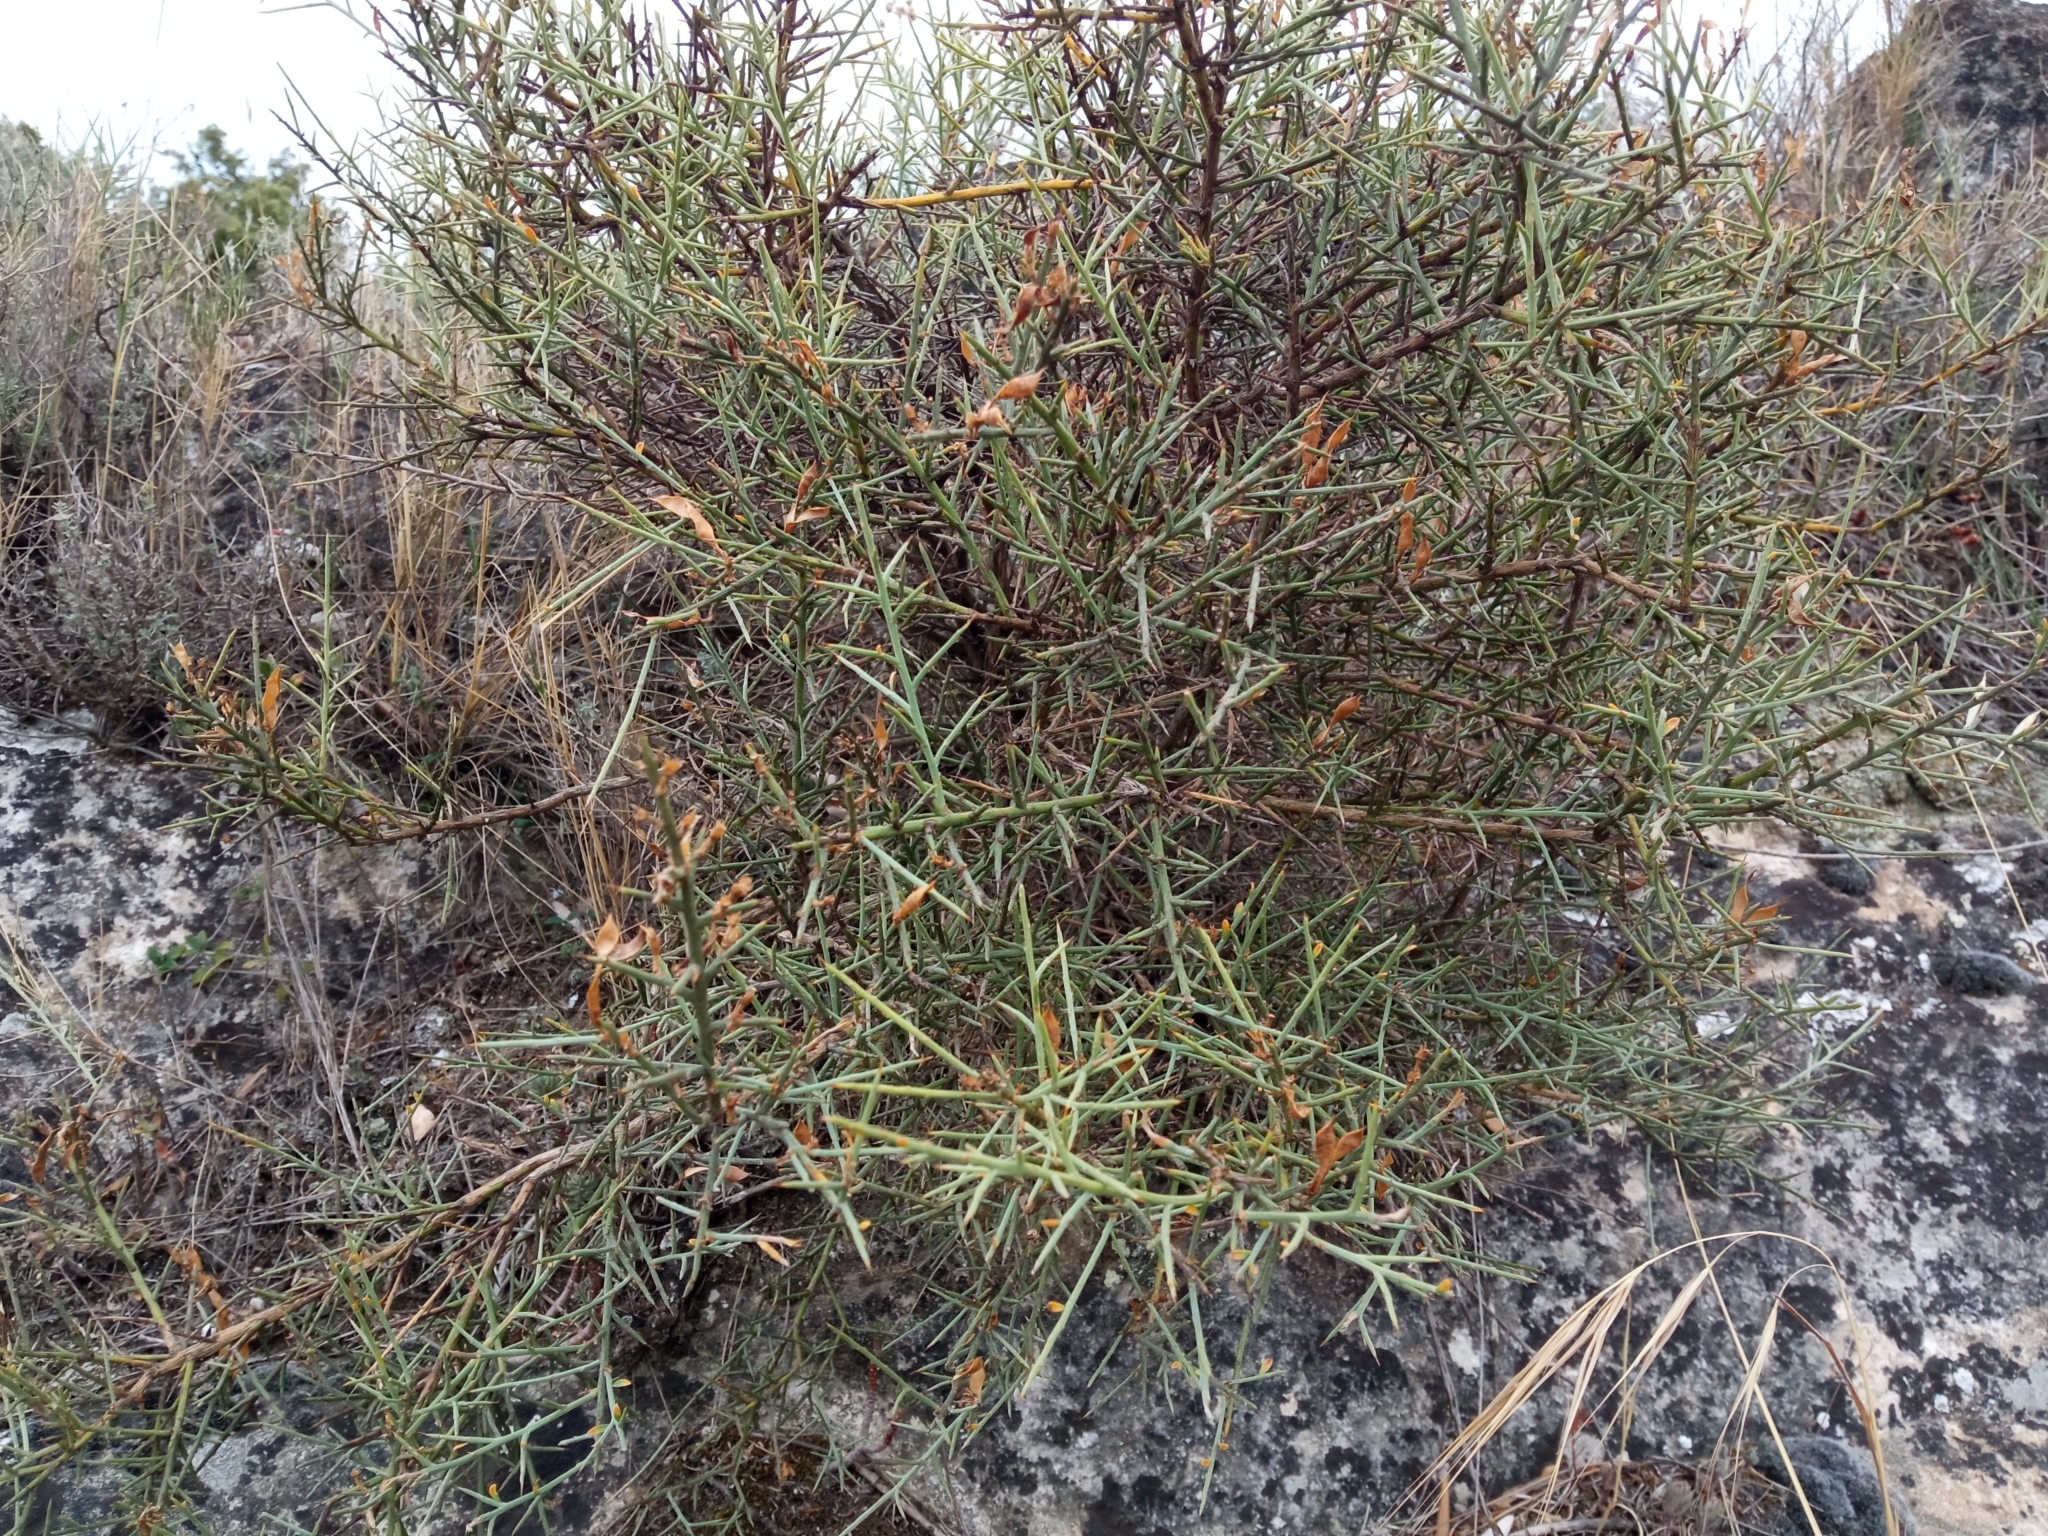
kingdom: Plantae
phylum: Tracheophyta
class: Magnoliopsida
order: Fabales
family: Fabaceae
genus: Genista
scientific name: Genista scorpius
